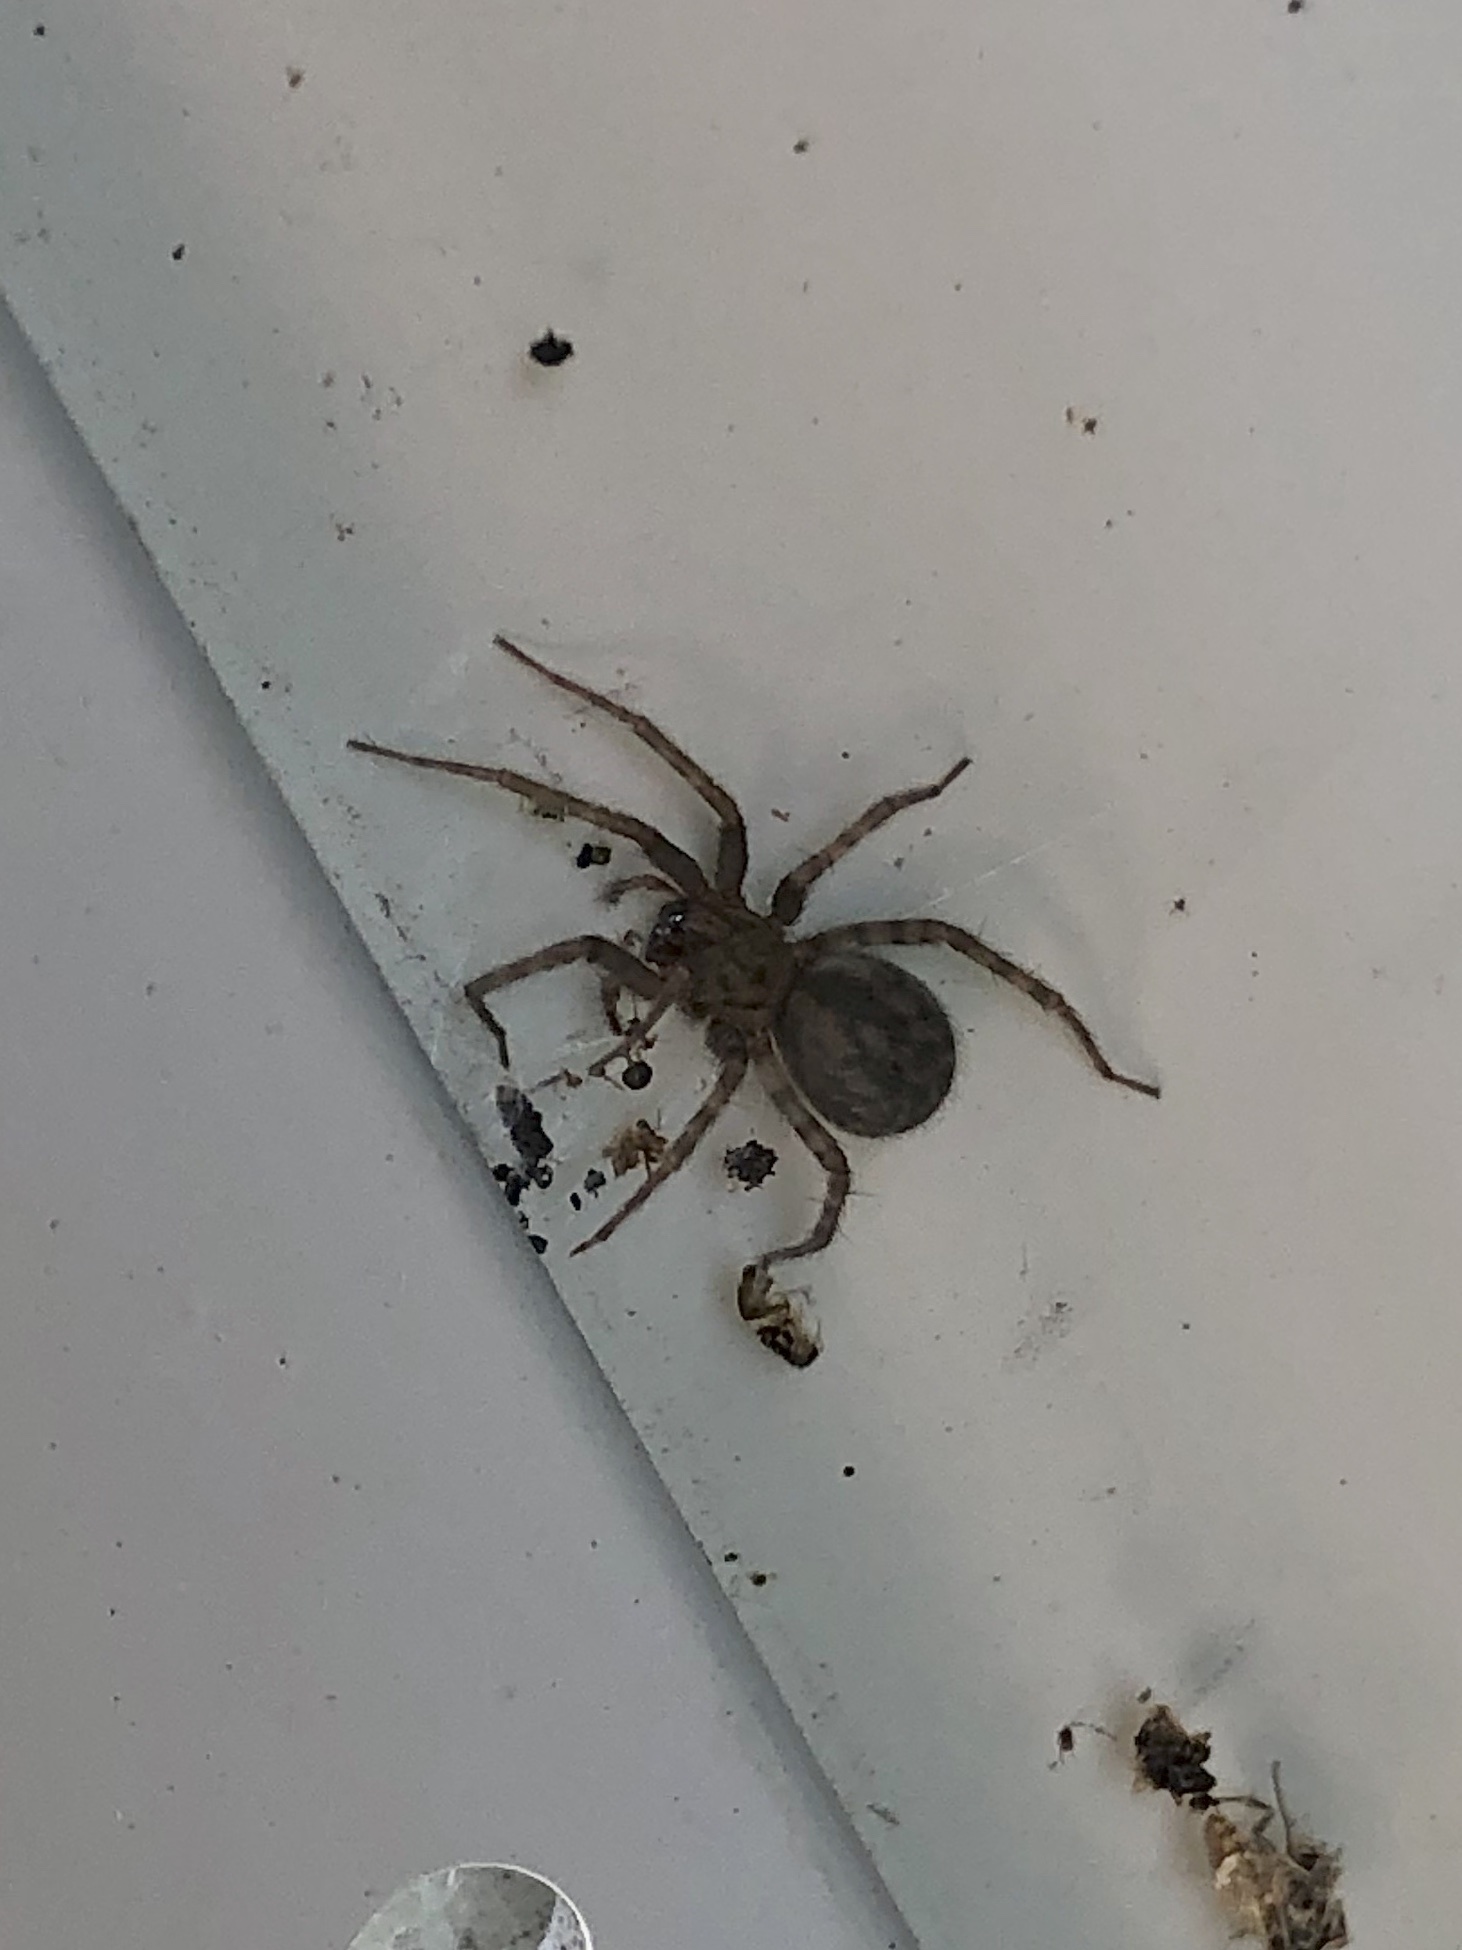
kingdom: Animalia
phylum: Arthropoda
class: Arachnida
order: Araneae
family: Agelenidae
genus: Tegenaria
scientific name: Tegenaria domestica
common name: Barn funnel weaver
